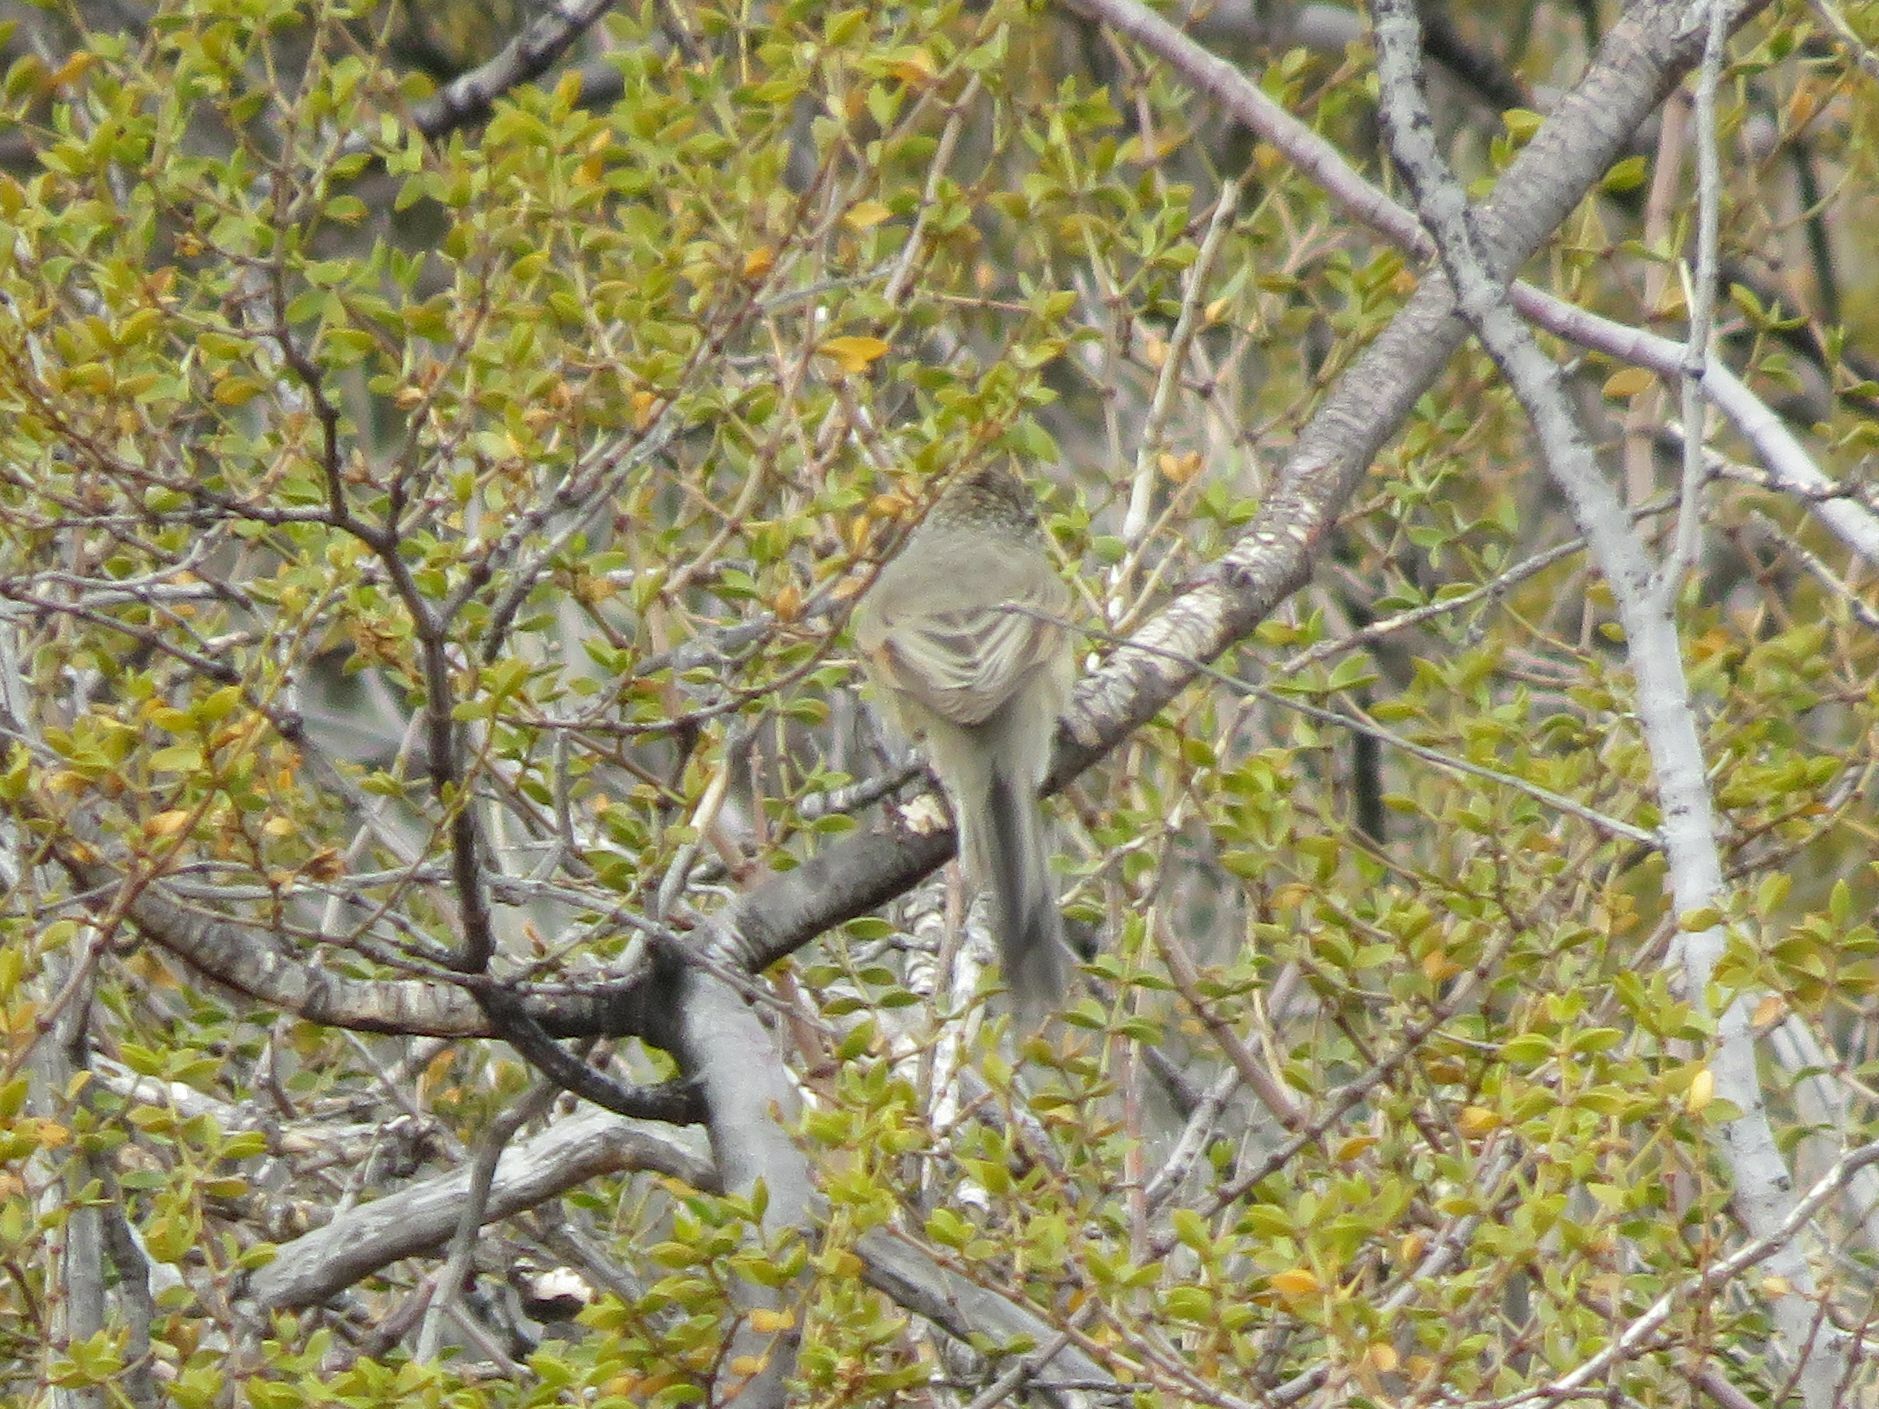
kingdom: Animalia
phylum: Chordata
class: Aves
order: Passeriformes
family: Furnariidae
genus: Leptasthenura
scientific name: Leptasthenura aegithaloides
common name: Plain-mantled tit-spinetail
